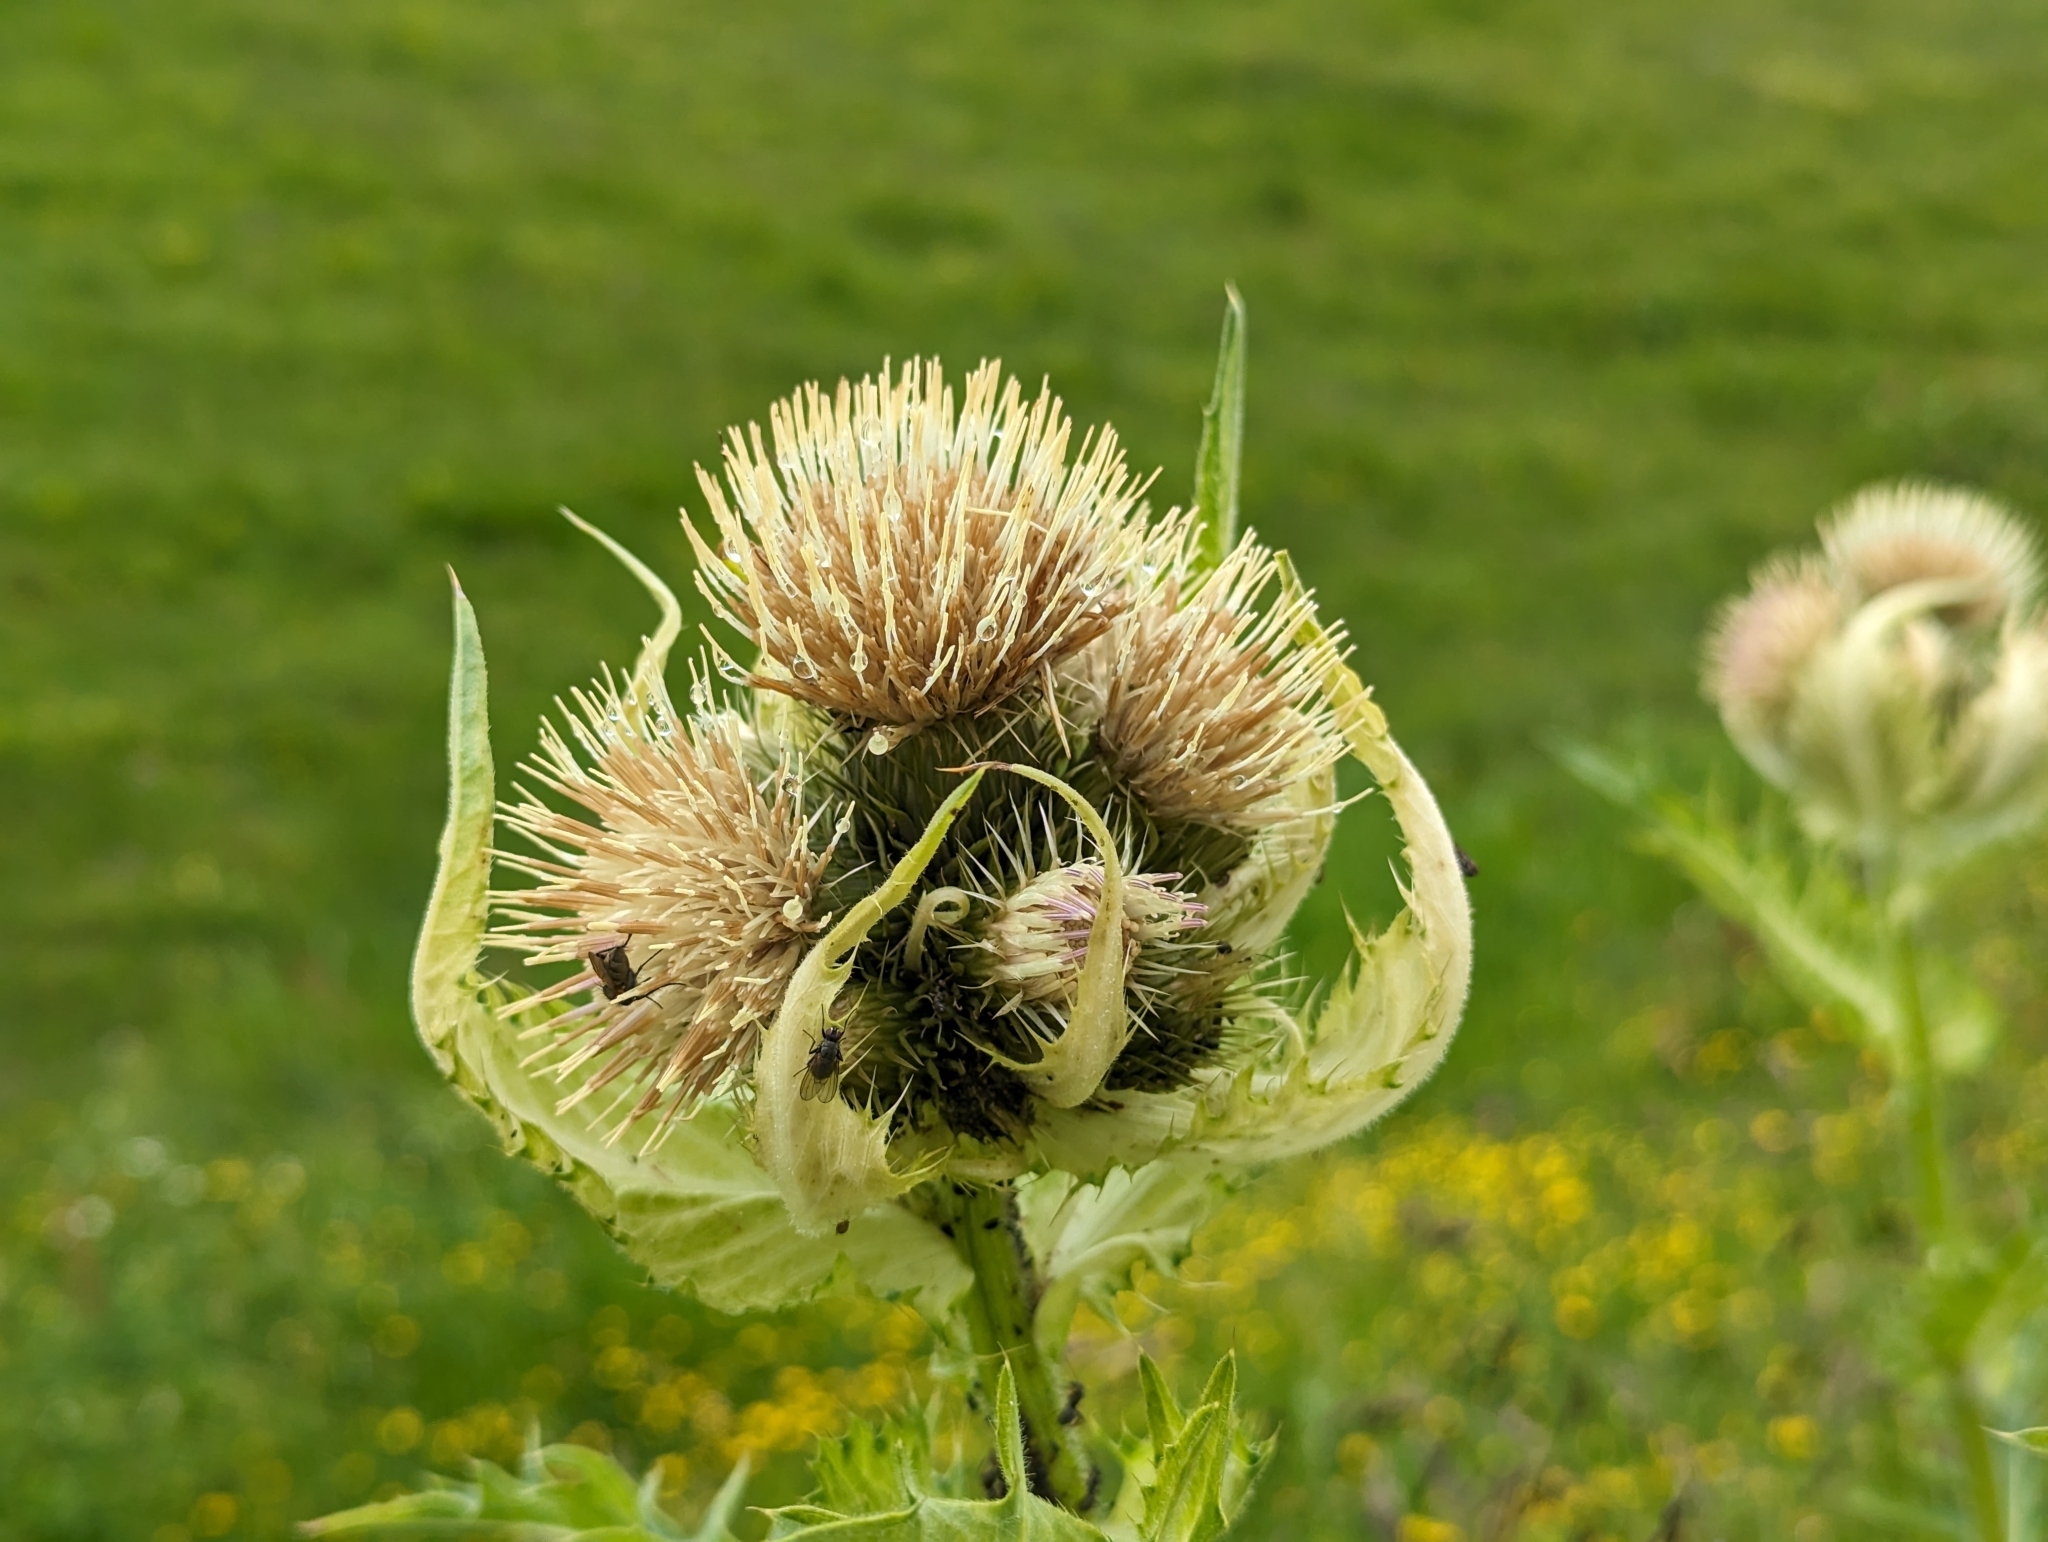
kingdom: Plantae
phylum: Tracheophyta
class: Magnoliopsida
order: Asterales
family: Asteraceae
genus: Cirsium
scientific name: Cirsium oleraceum
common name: Cabbage thistle
